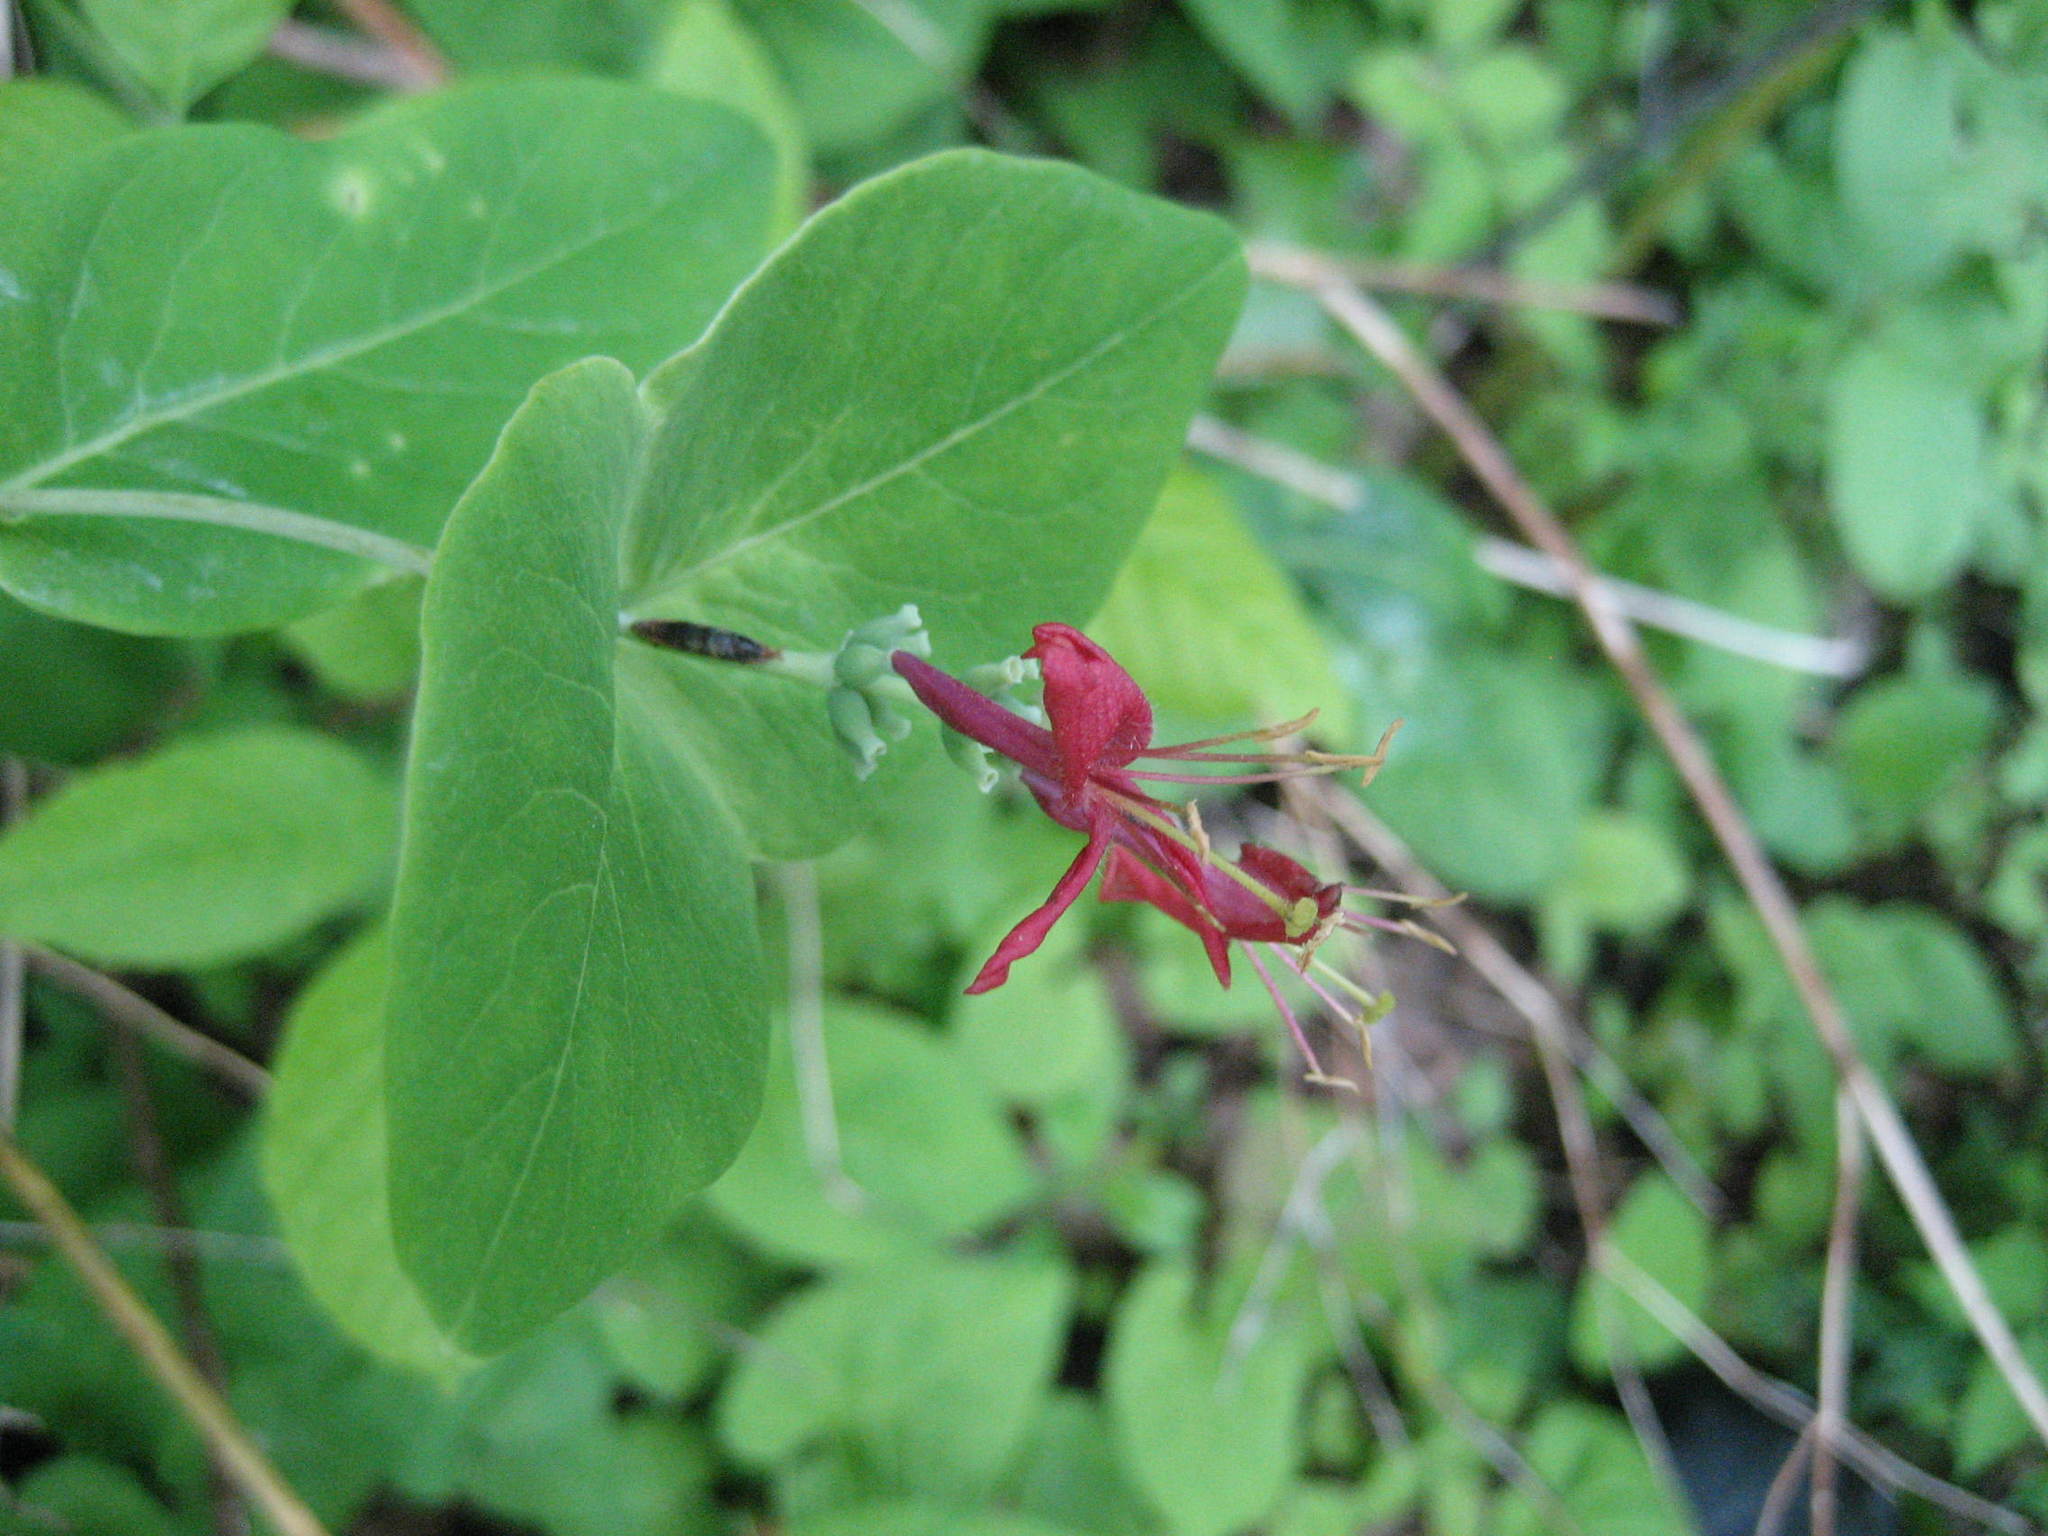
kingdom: Plantae
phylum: Tracheophyta
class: Magnoliopsida
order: Dipsacales
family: Caprifoliaceae
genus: Lonicera
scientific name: Lonicera dioica
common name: Limber honeysuckle
